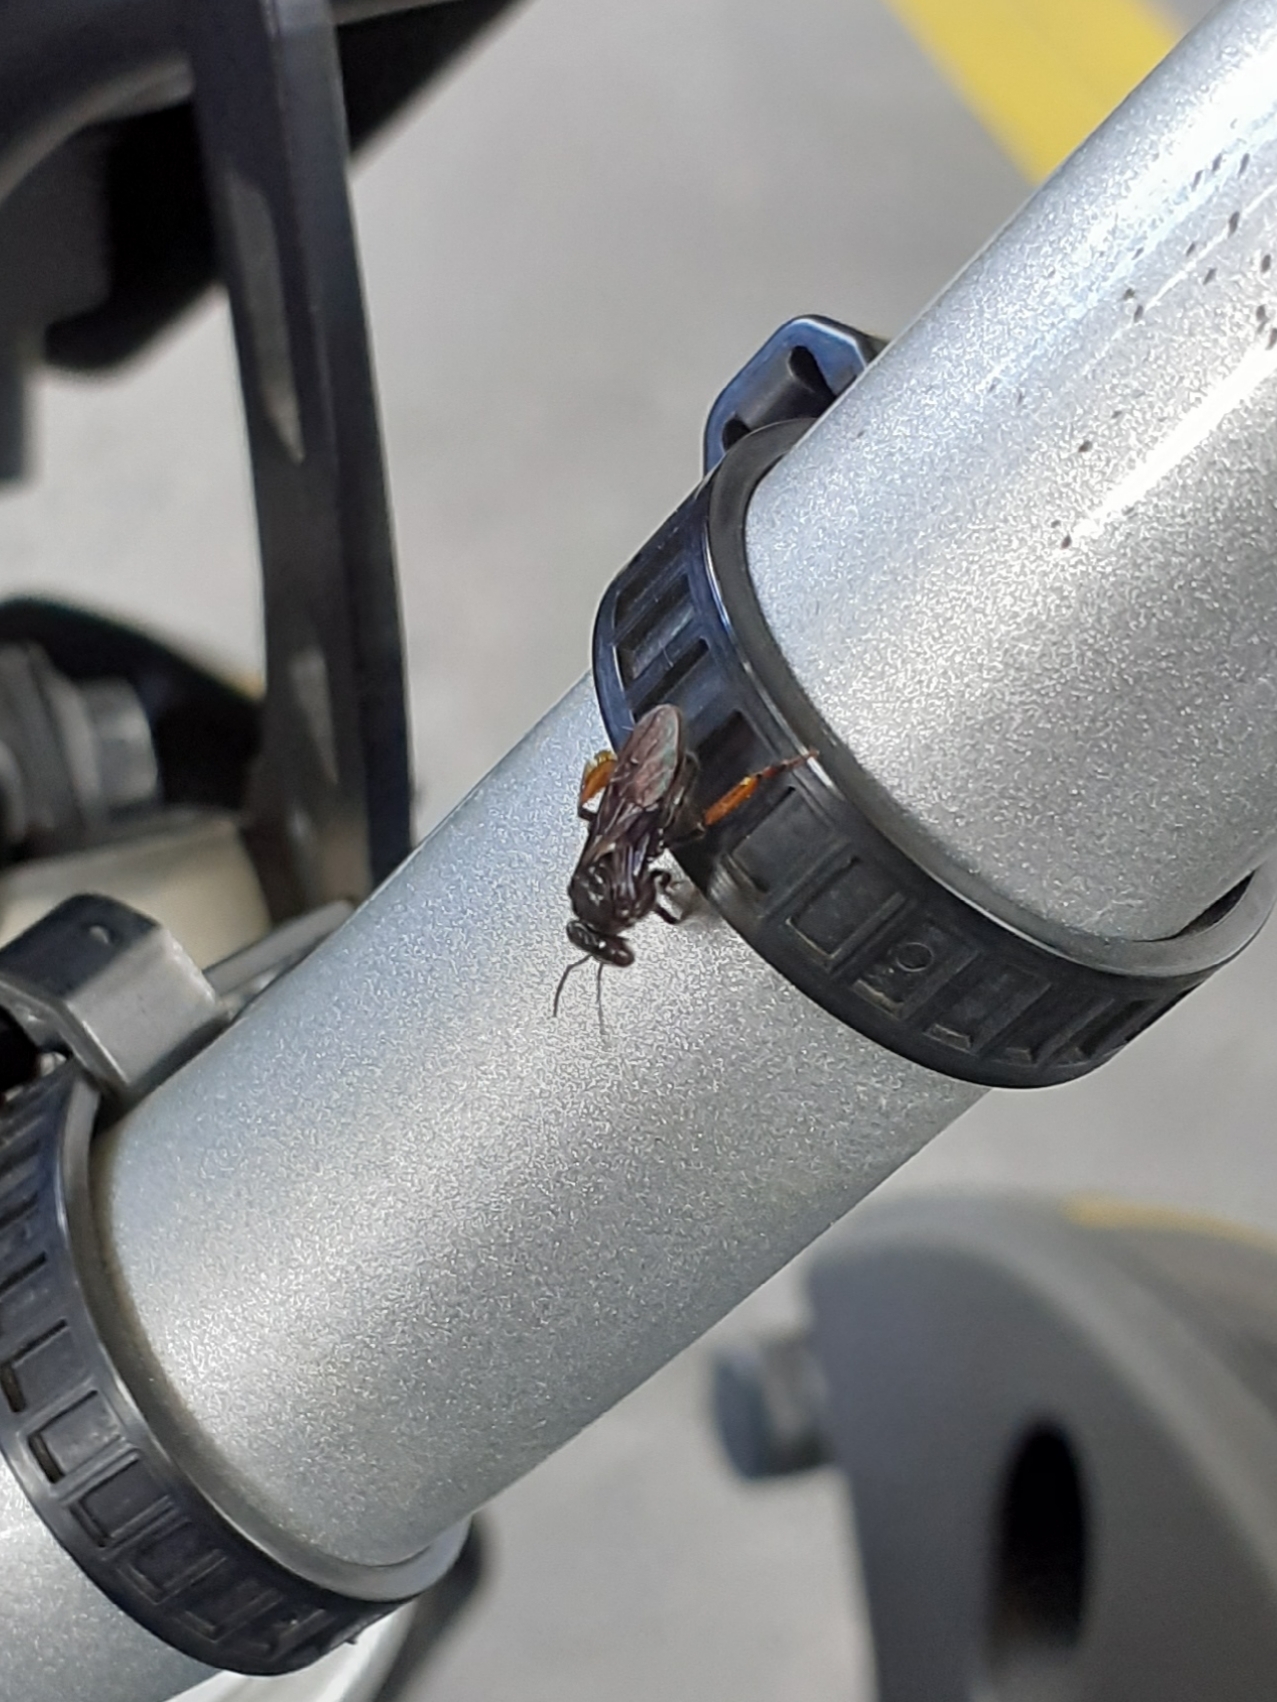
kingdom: Animalia
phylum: Arthropoda
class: Insecta
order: Hymenoptera
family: Apidae
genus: Trigona
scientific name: Trigona spinipes
